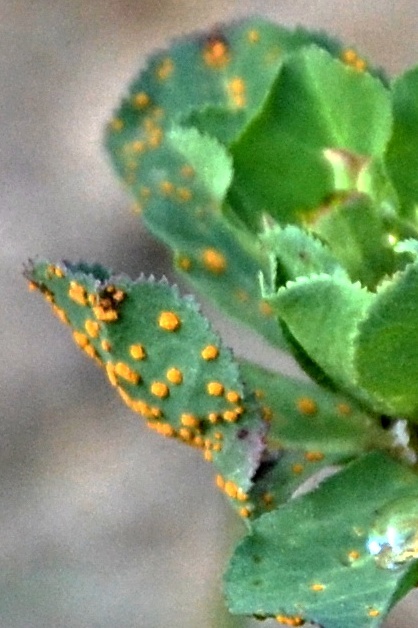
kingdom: Fungi
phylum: Basidiomycota
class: Pucciniomycetes
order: Pucciniales
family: Melampsoraceae
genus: Melampsora
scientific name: Melampsora euphorbiae
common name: Spurge rust
